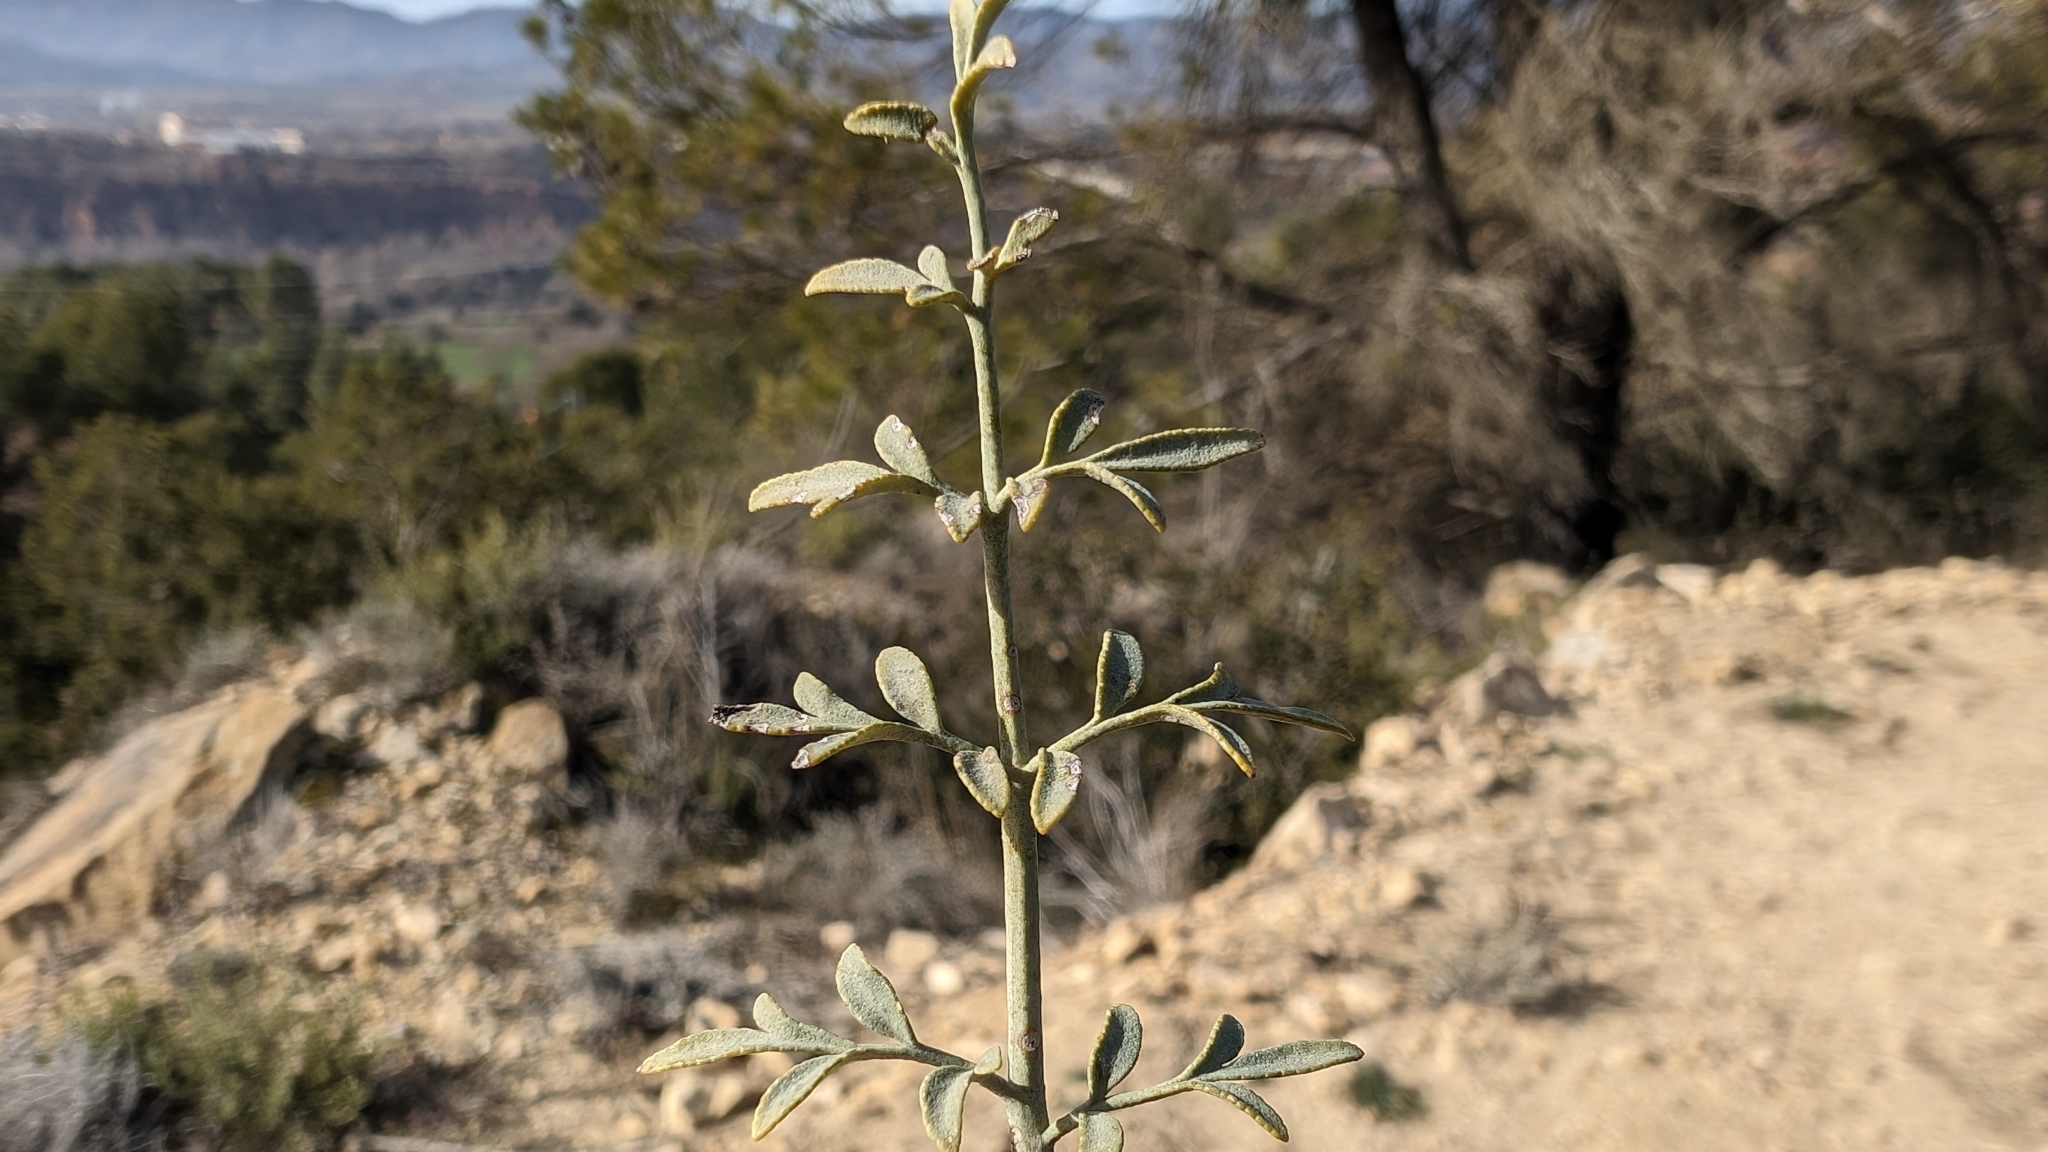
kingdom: Plantae
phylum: Tracheophyta
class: Magnoliopsida
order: Sapindales
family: Rutaceae
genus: Ruta
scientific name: Ruta angustifolia
